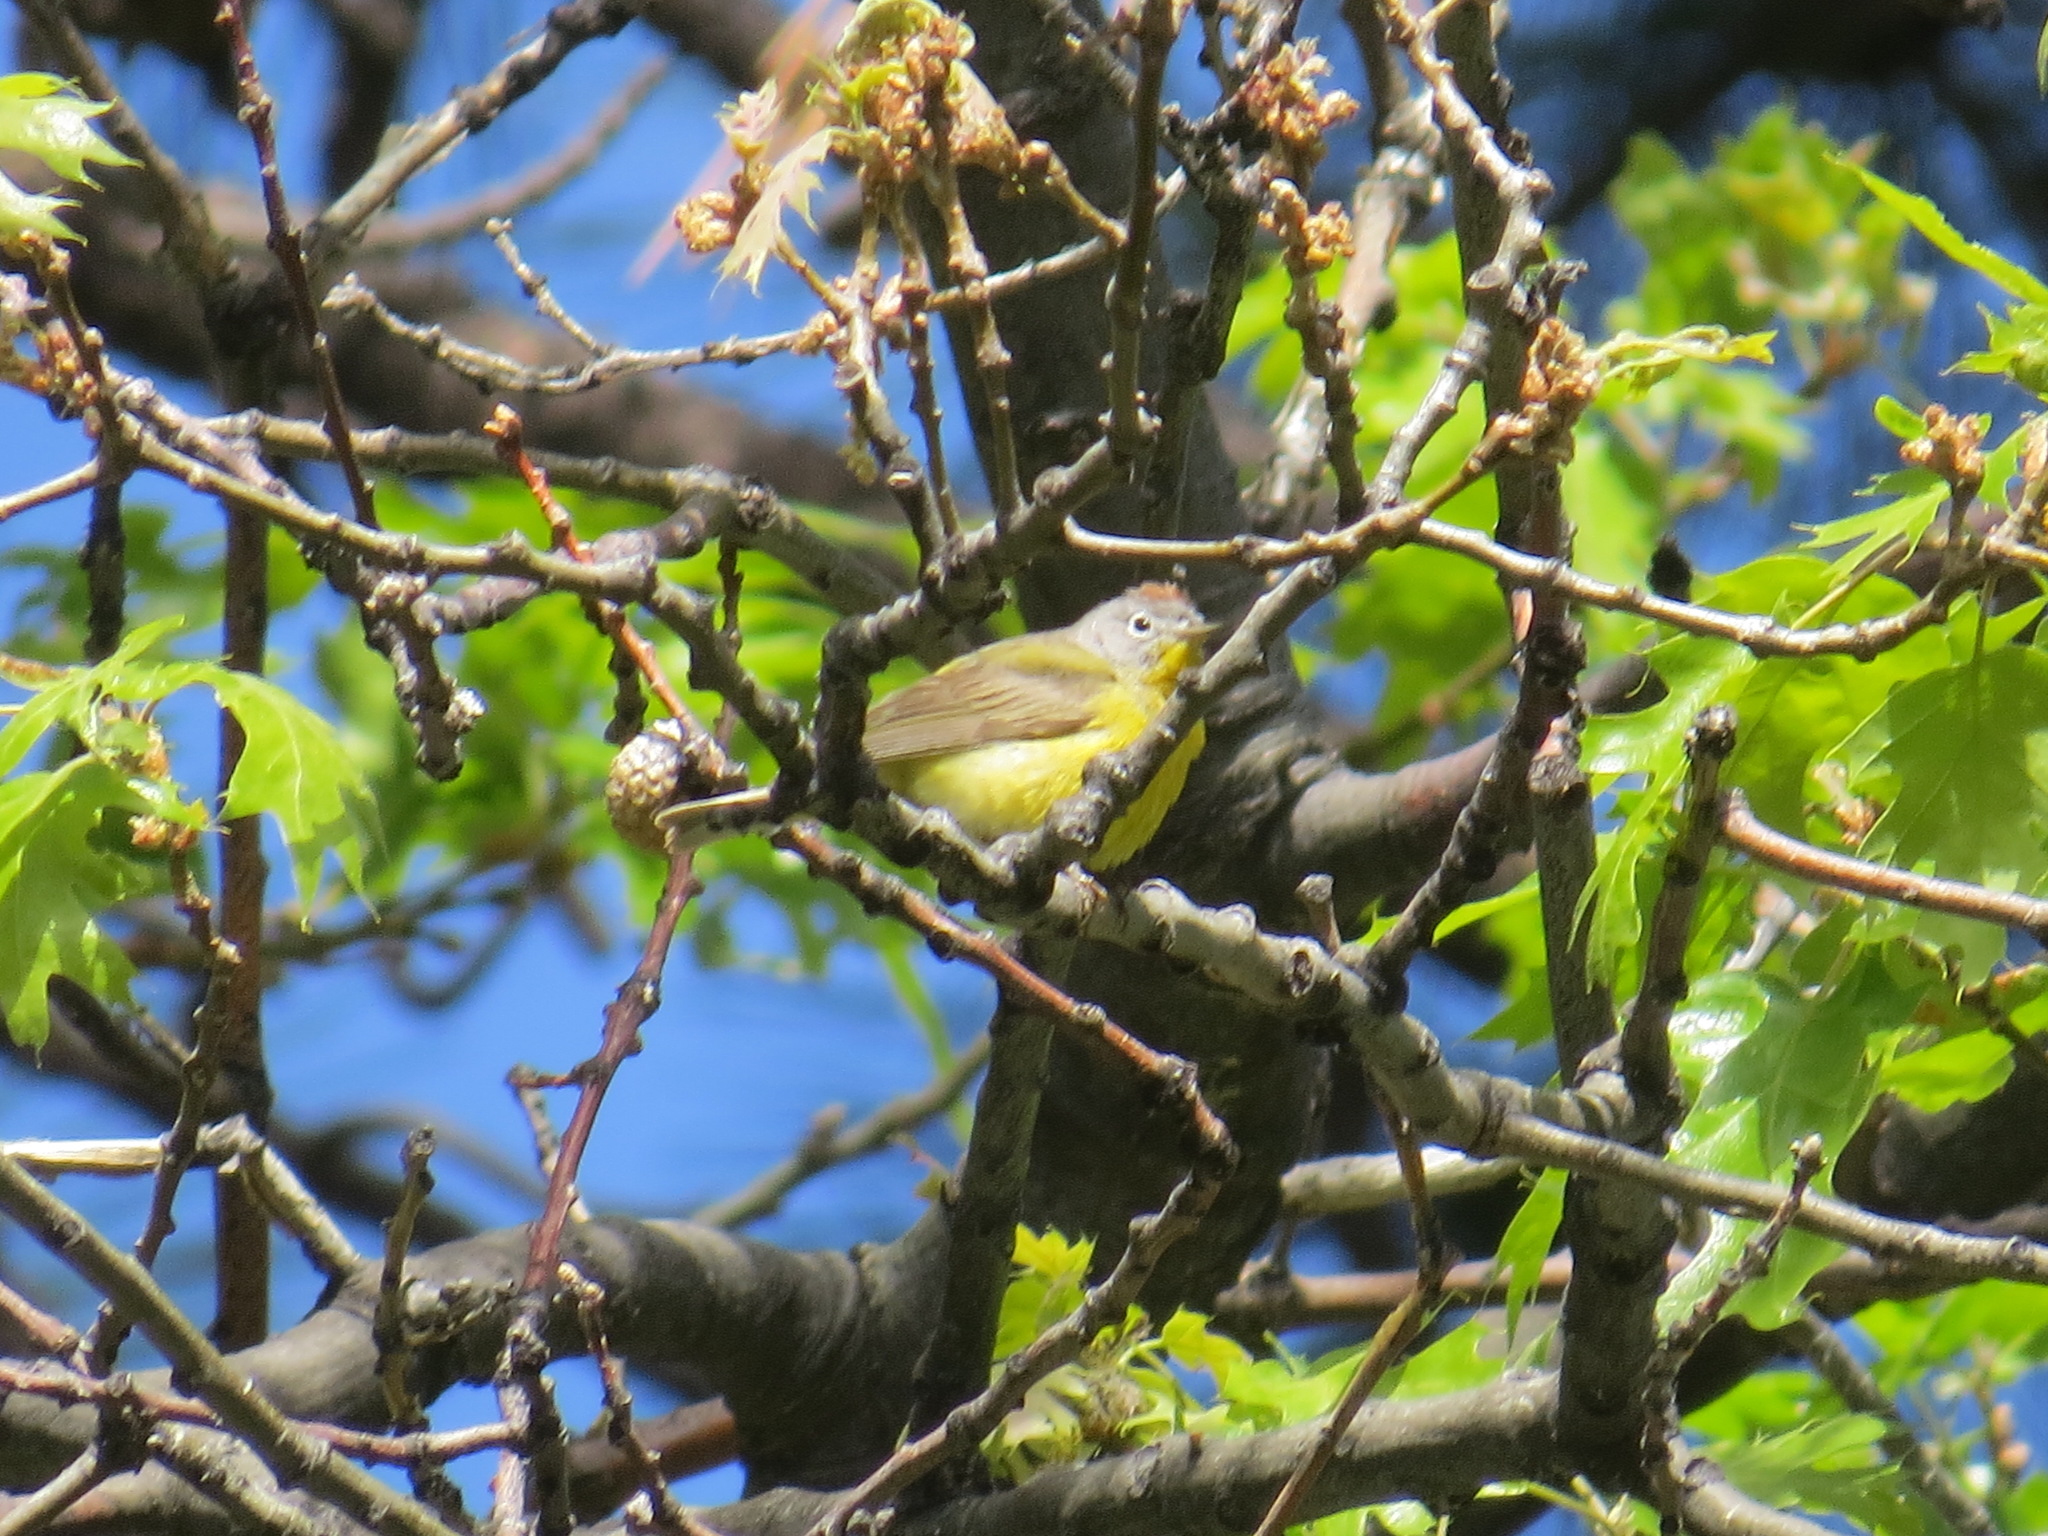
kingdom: Animalia
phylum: Chordata
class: Aves
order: Passeriformes
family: Parulidae
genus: Leiothlypis
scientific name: Leiothlypis ruficapilla
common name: Nashville warbler
